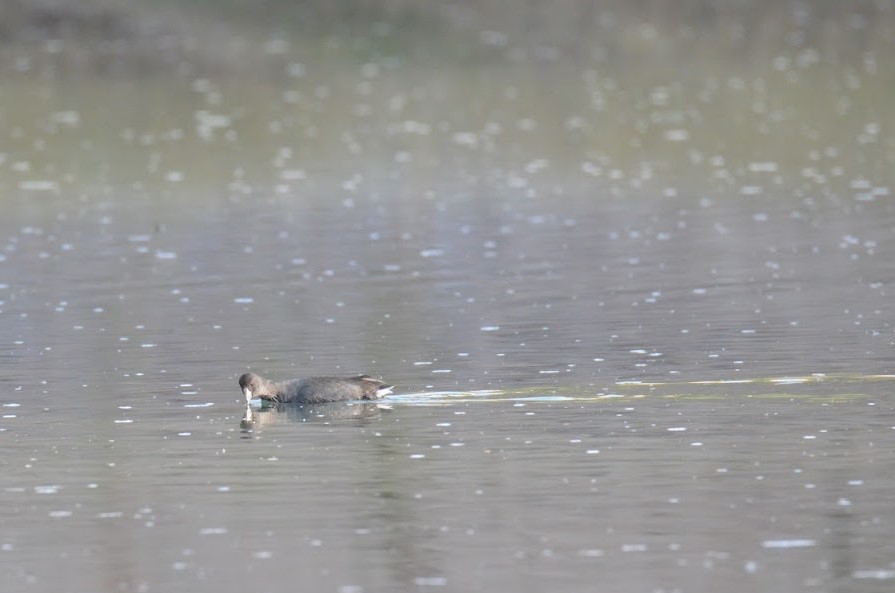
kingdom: Animalia
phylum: Chordata
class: Aves
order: Gruiformes
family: Rallidae
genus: Fulica
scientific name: Fulica americana
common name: American coot
